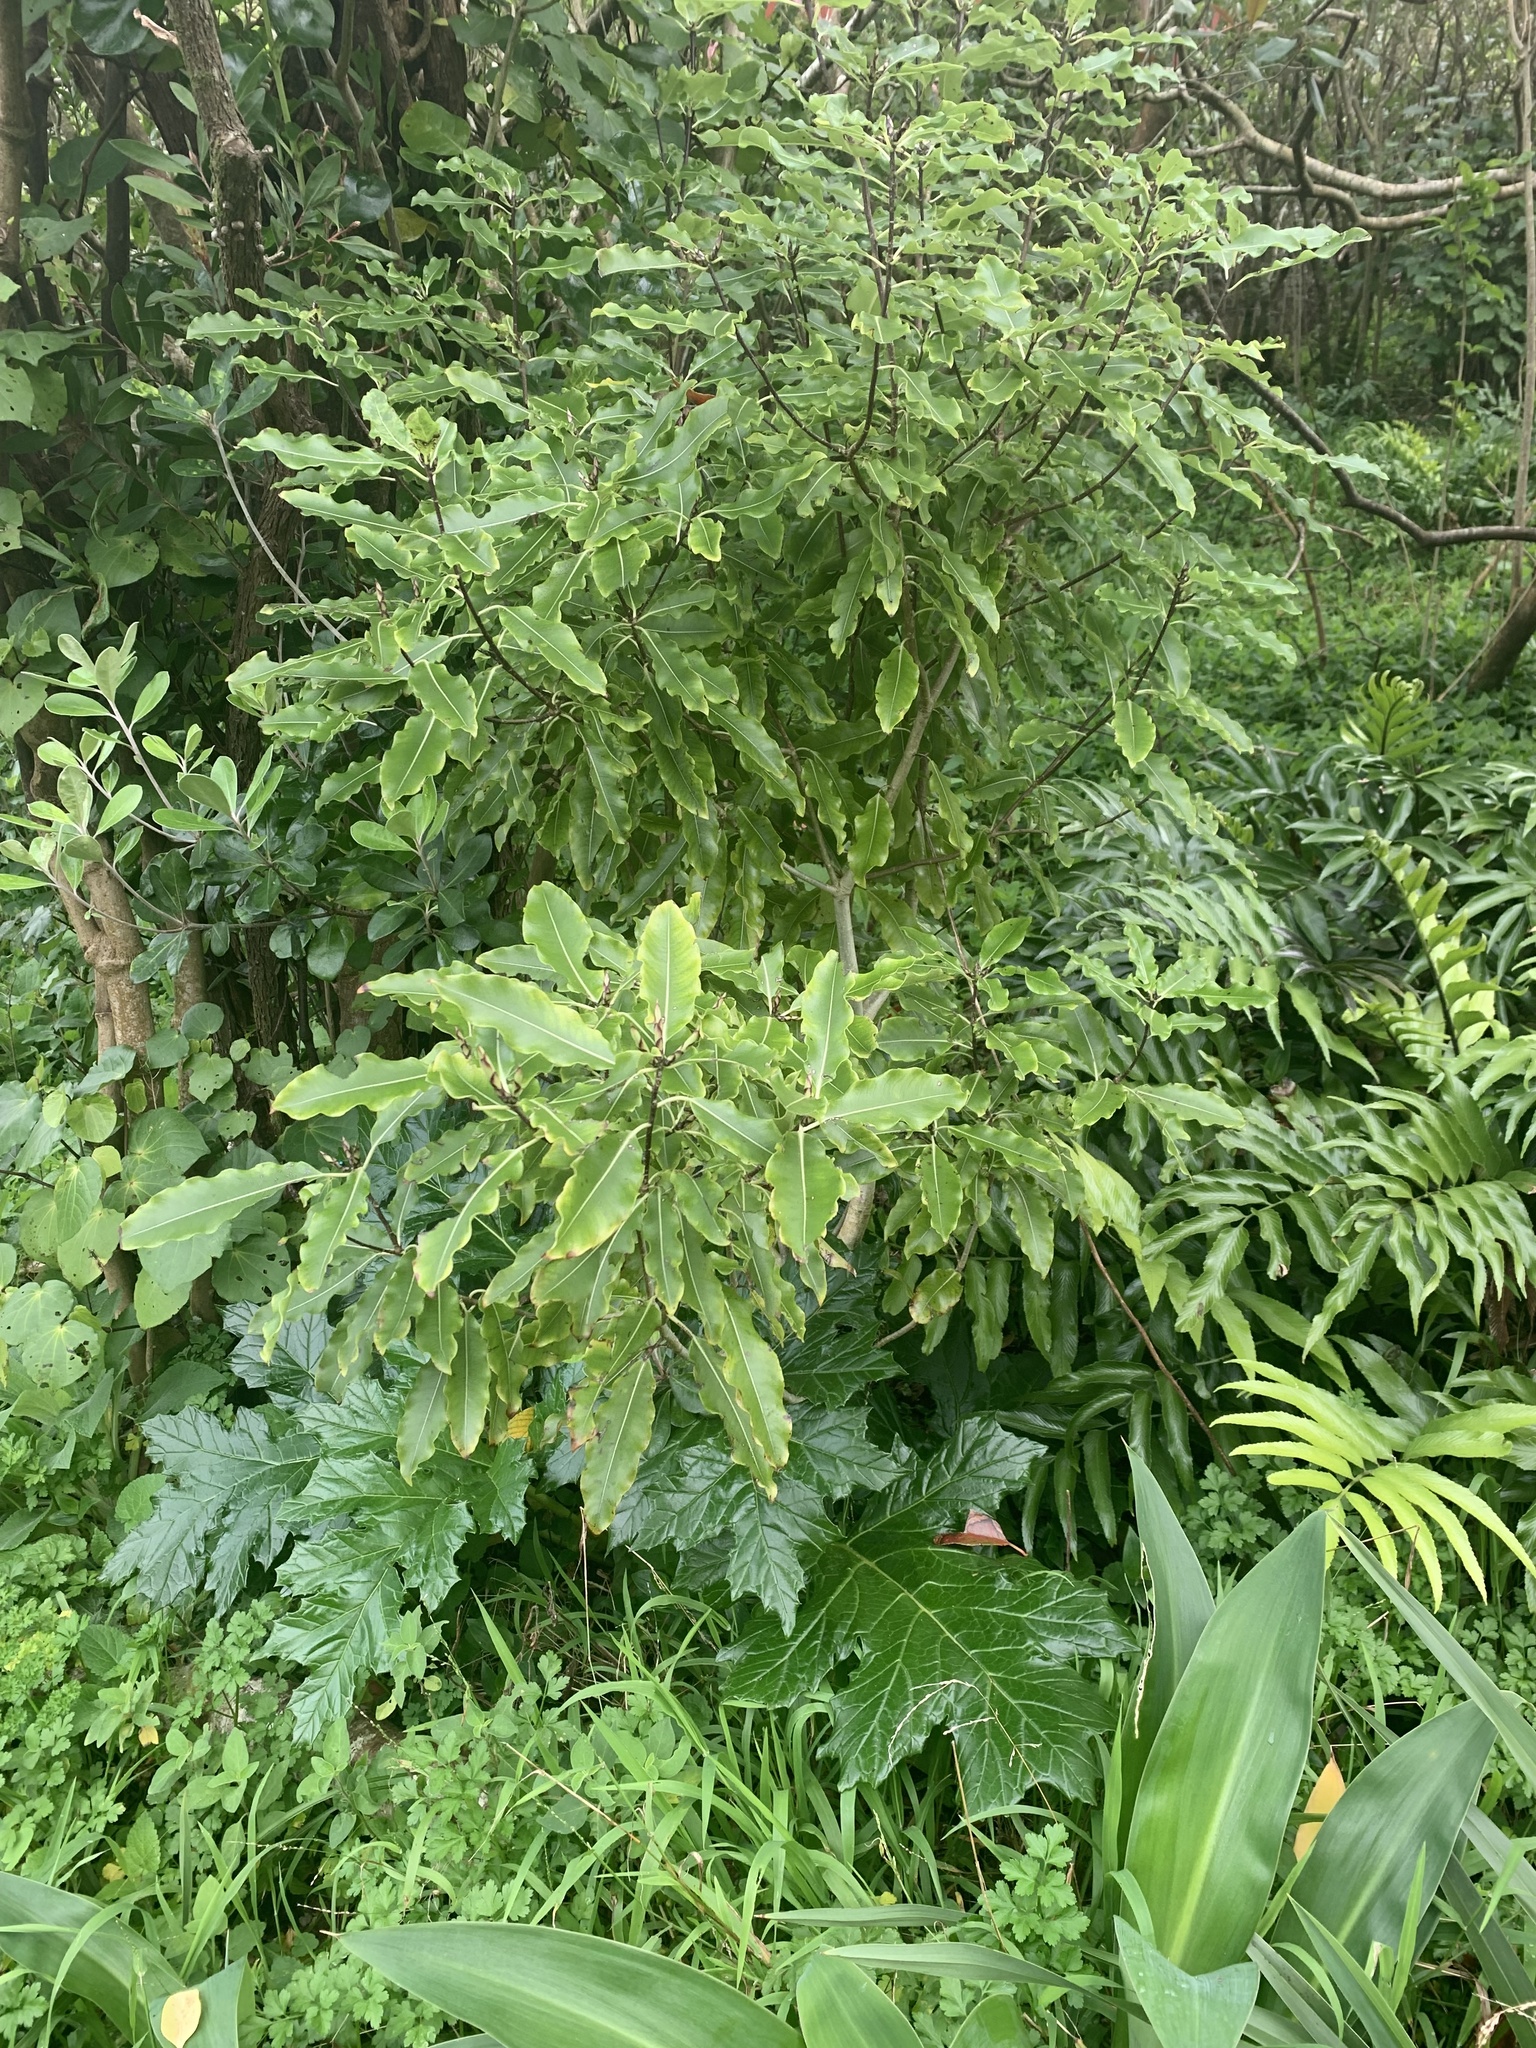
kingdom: Plantae
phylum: Tracheophyta
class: Magnoliopsida
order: Apiales
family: Pittosporaceae
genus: Pittosporum
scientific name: Pittosporum eugenioides
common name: Lemonwood
